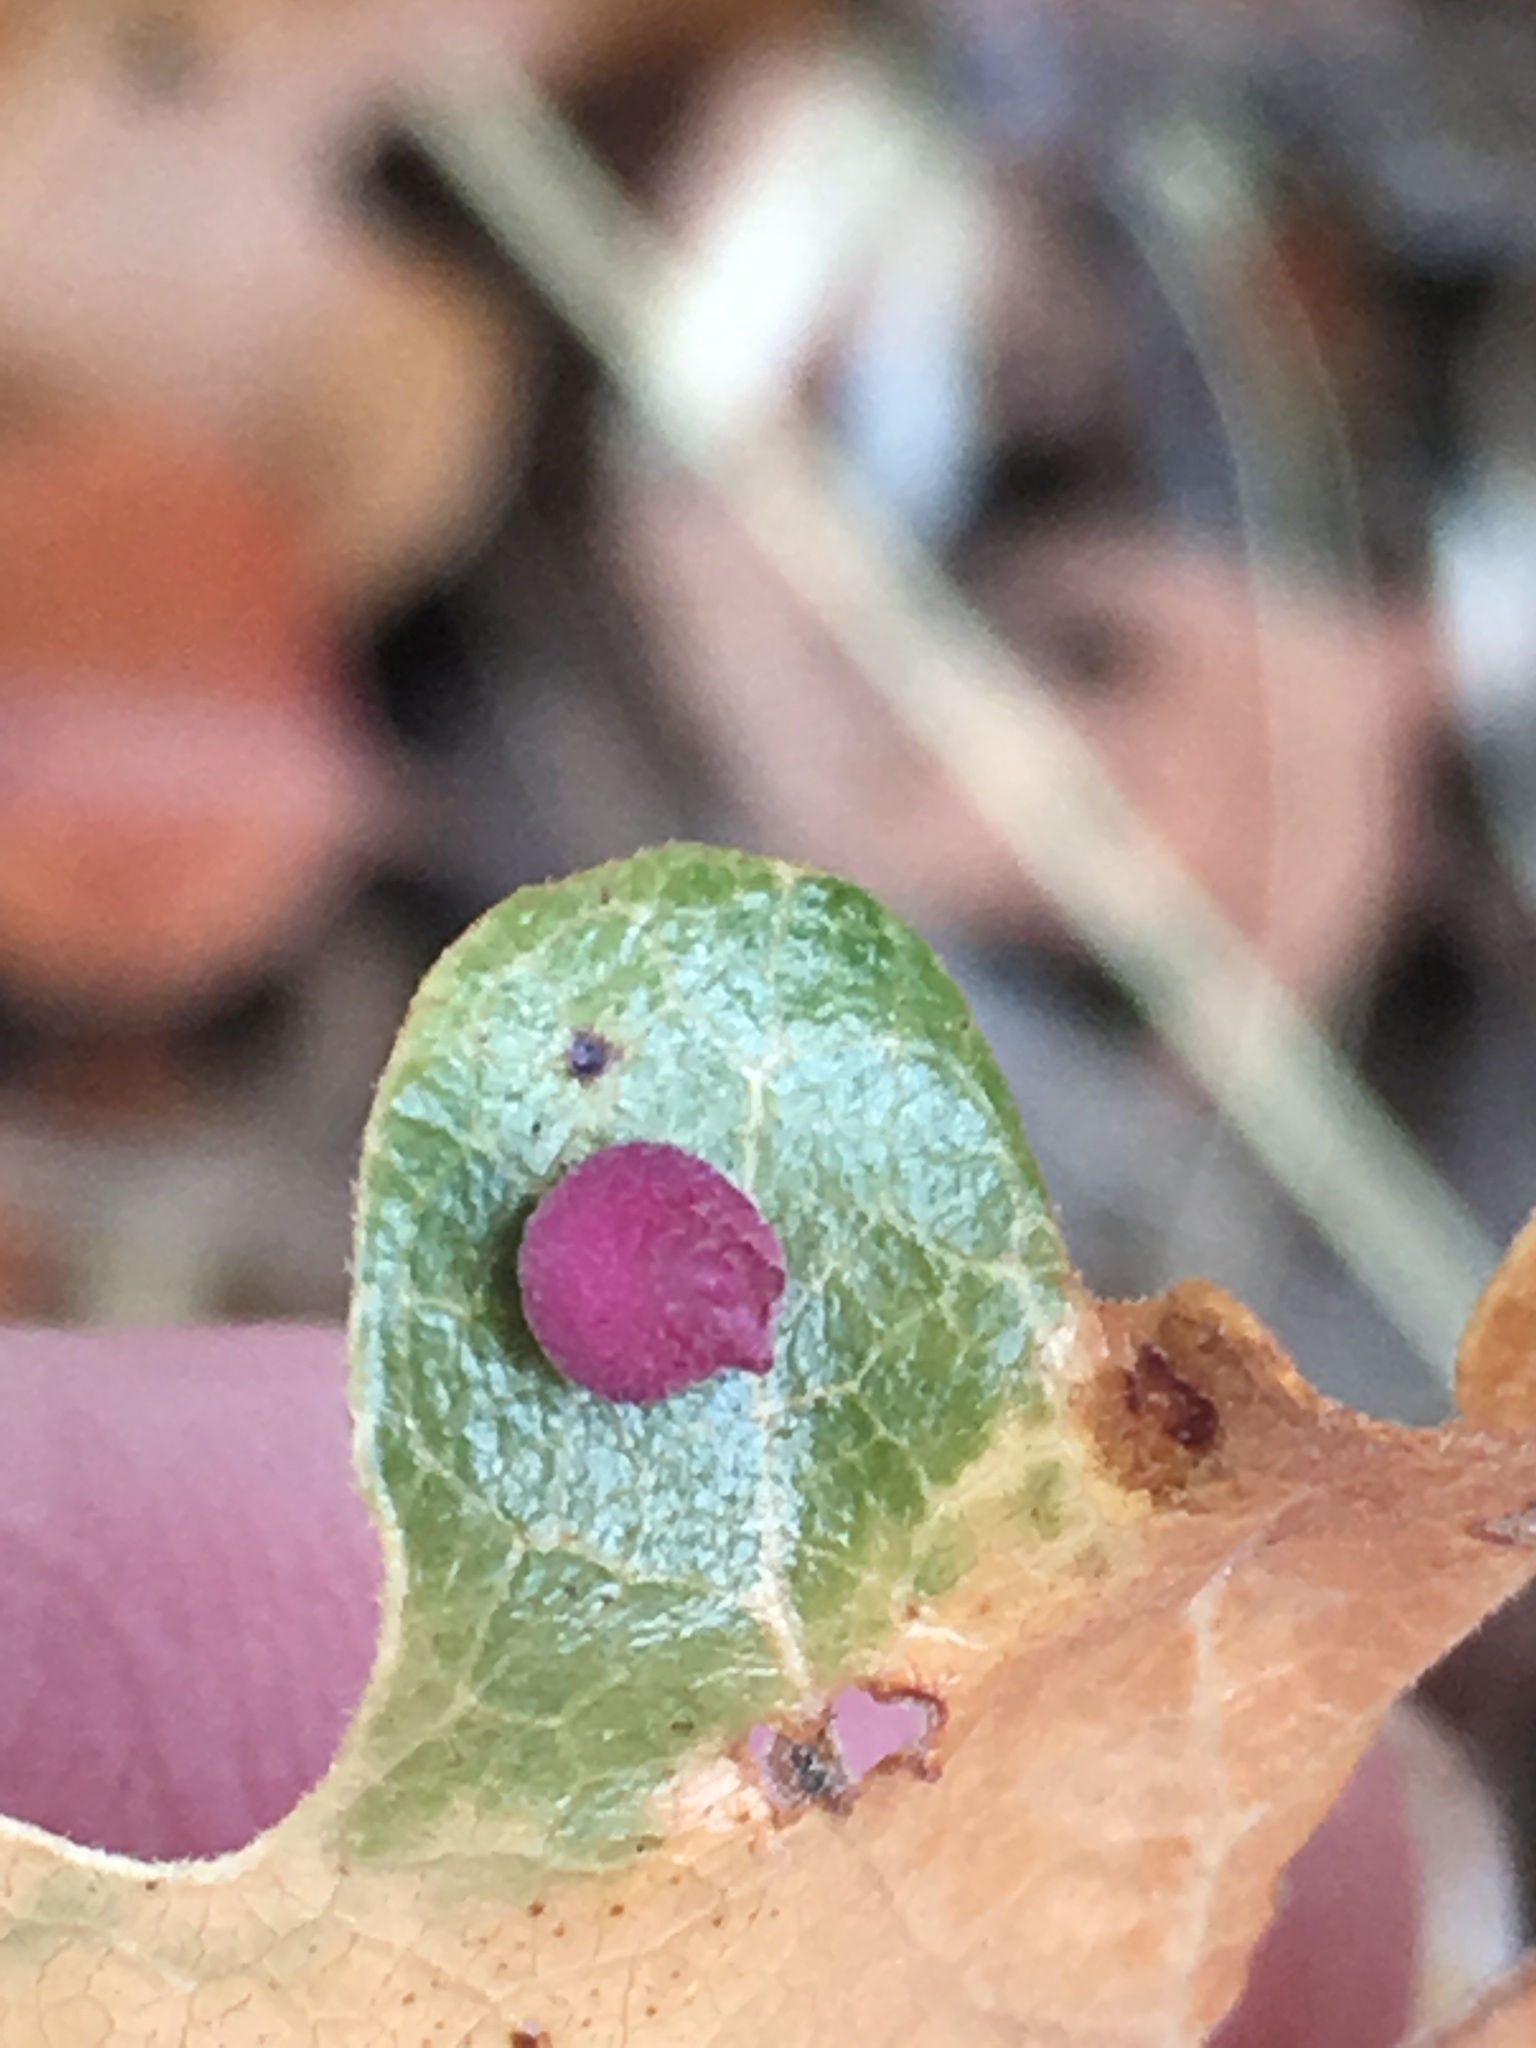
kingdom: Animalia
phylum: Arthropoda
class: Insecta
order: Hymenoptera
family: Cynipidae
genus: Andricus
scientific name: Andricus
